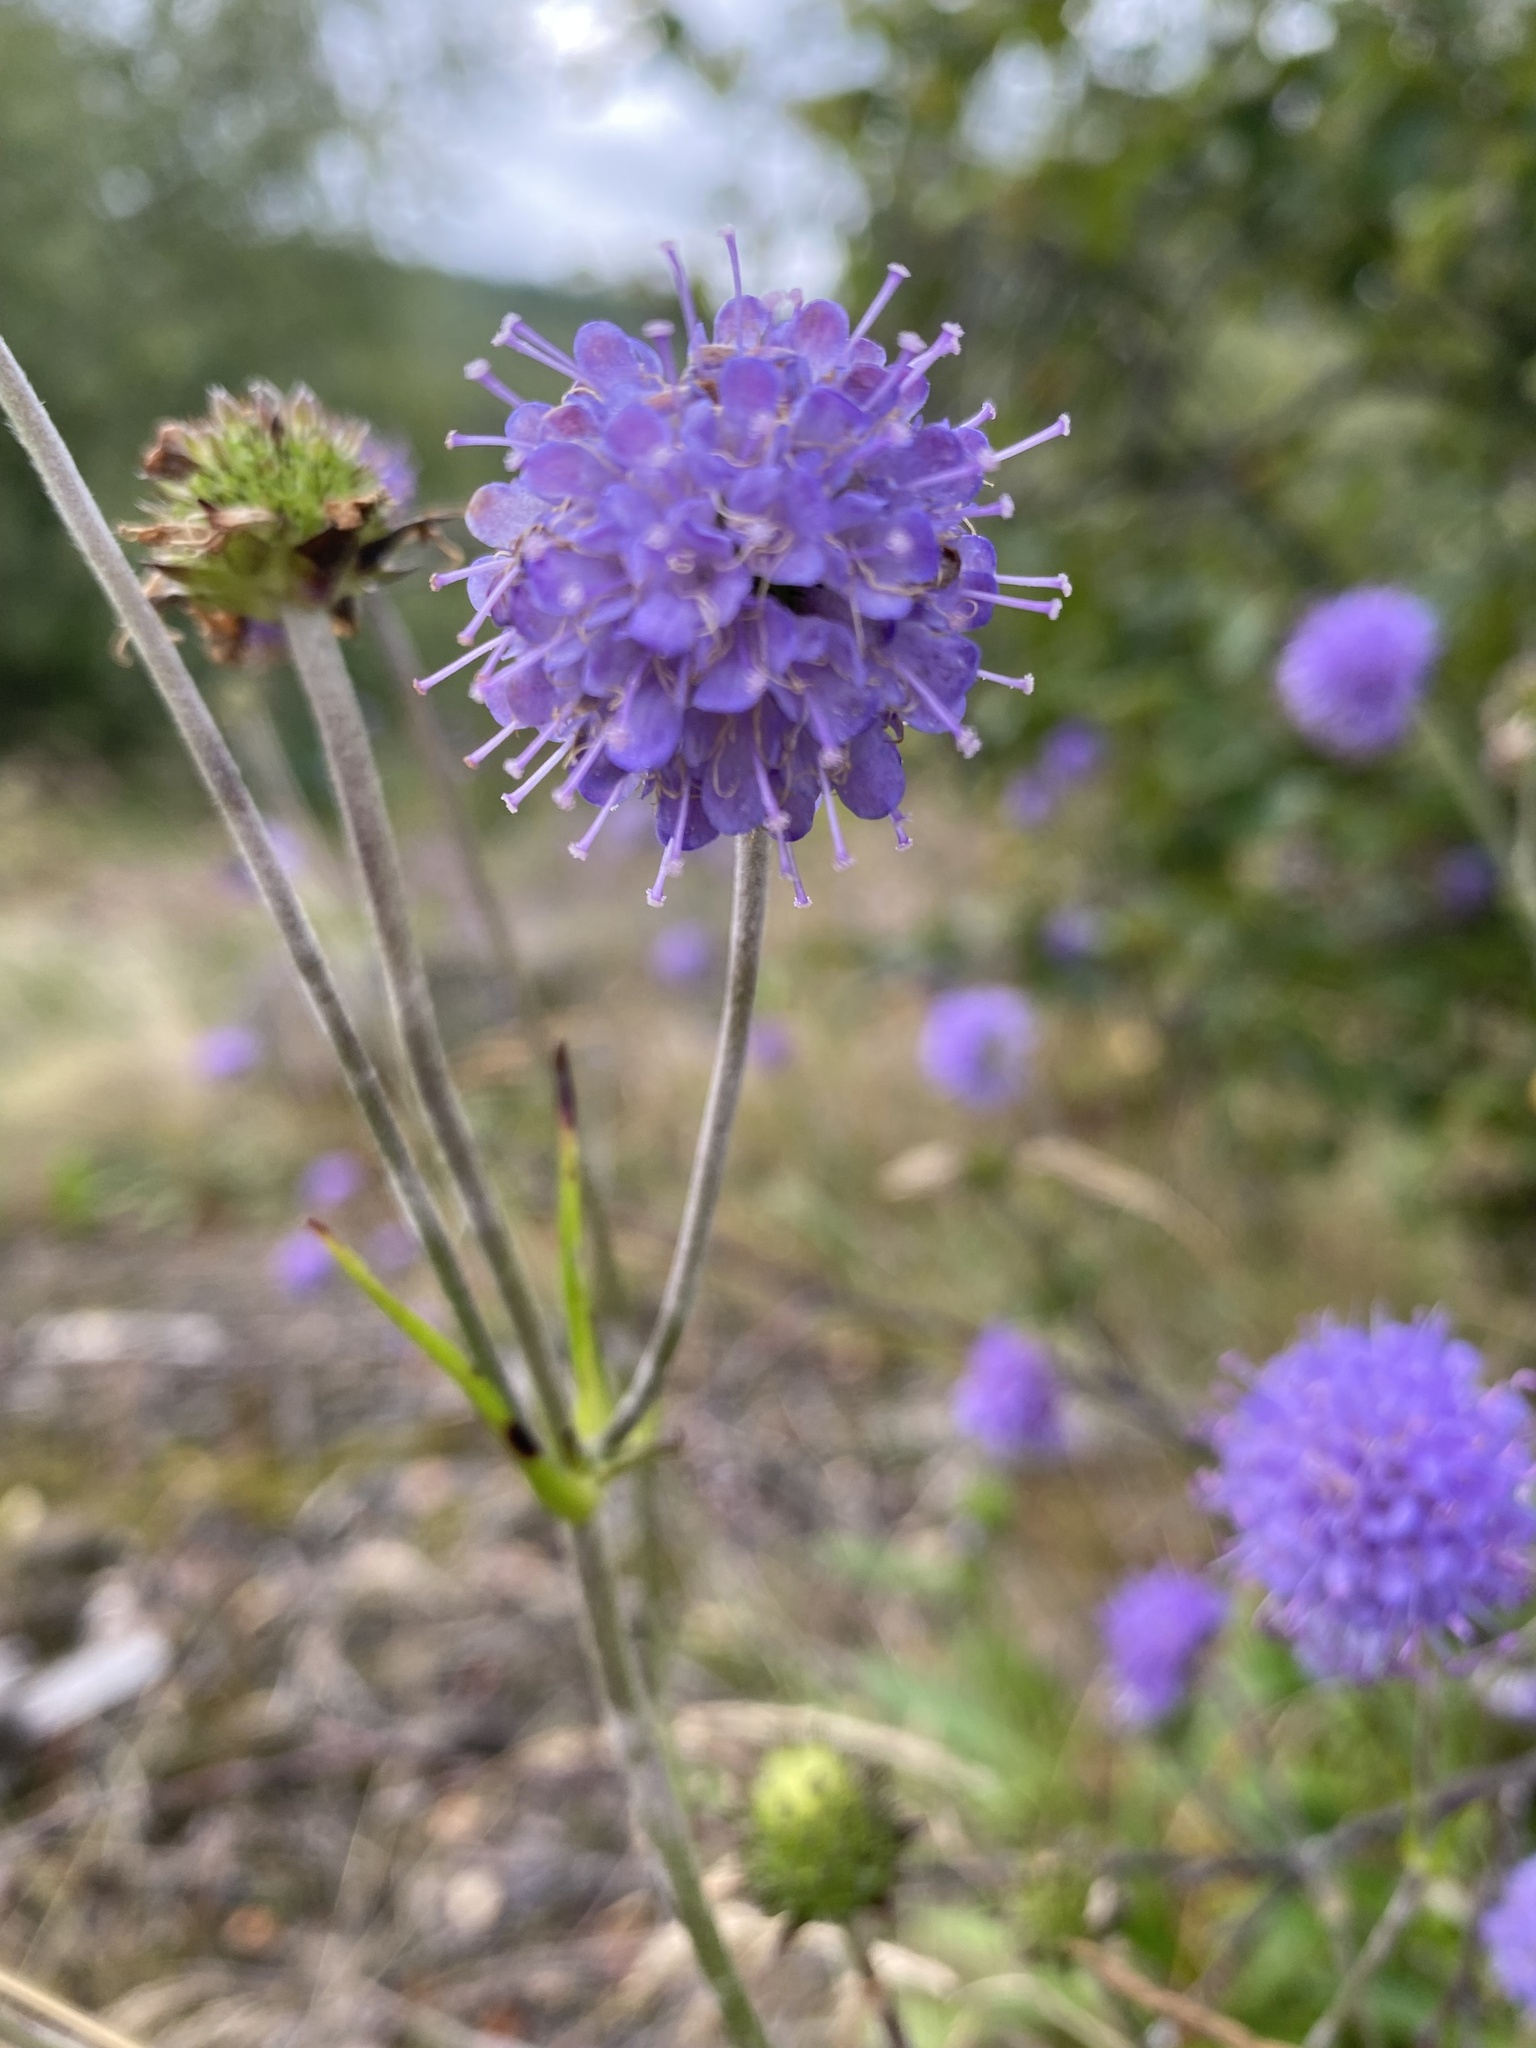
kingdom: Plantae
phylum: Tracheophyta
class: Magnoliopsida
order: Dipsacales
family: Caprifoliaceae
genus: Succisa
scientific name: Succisa pratensis
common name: Devil's-bit
